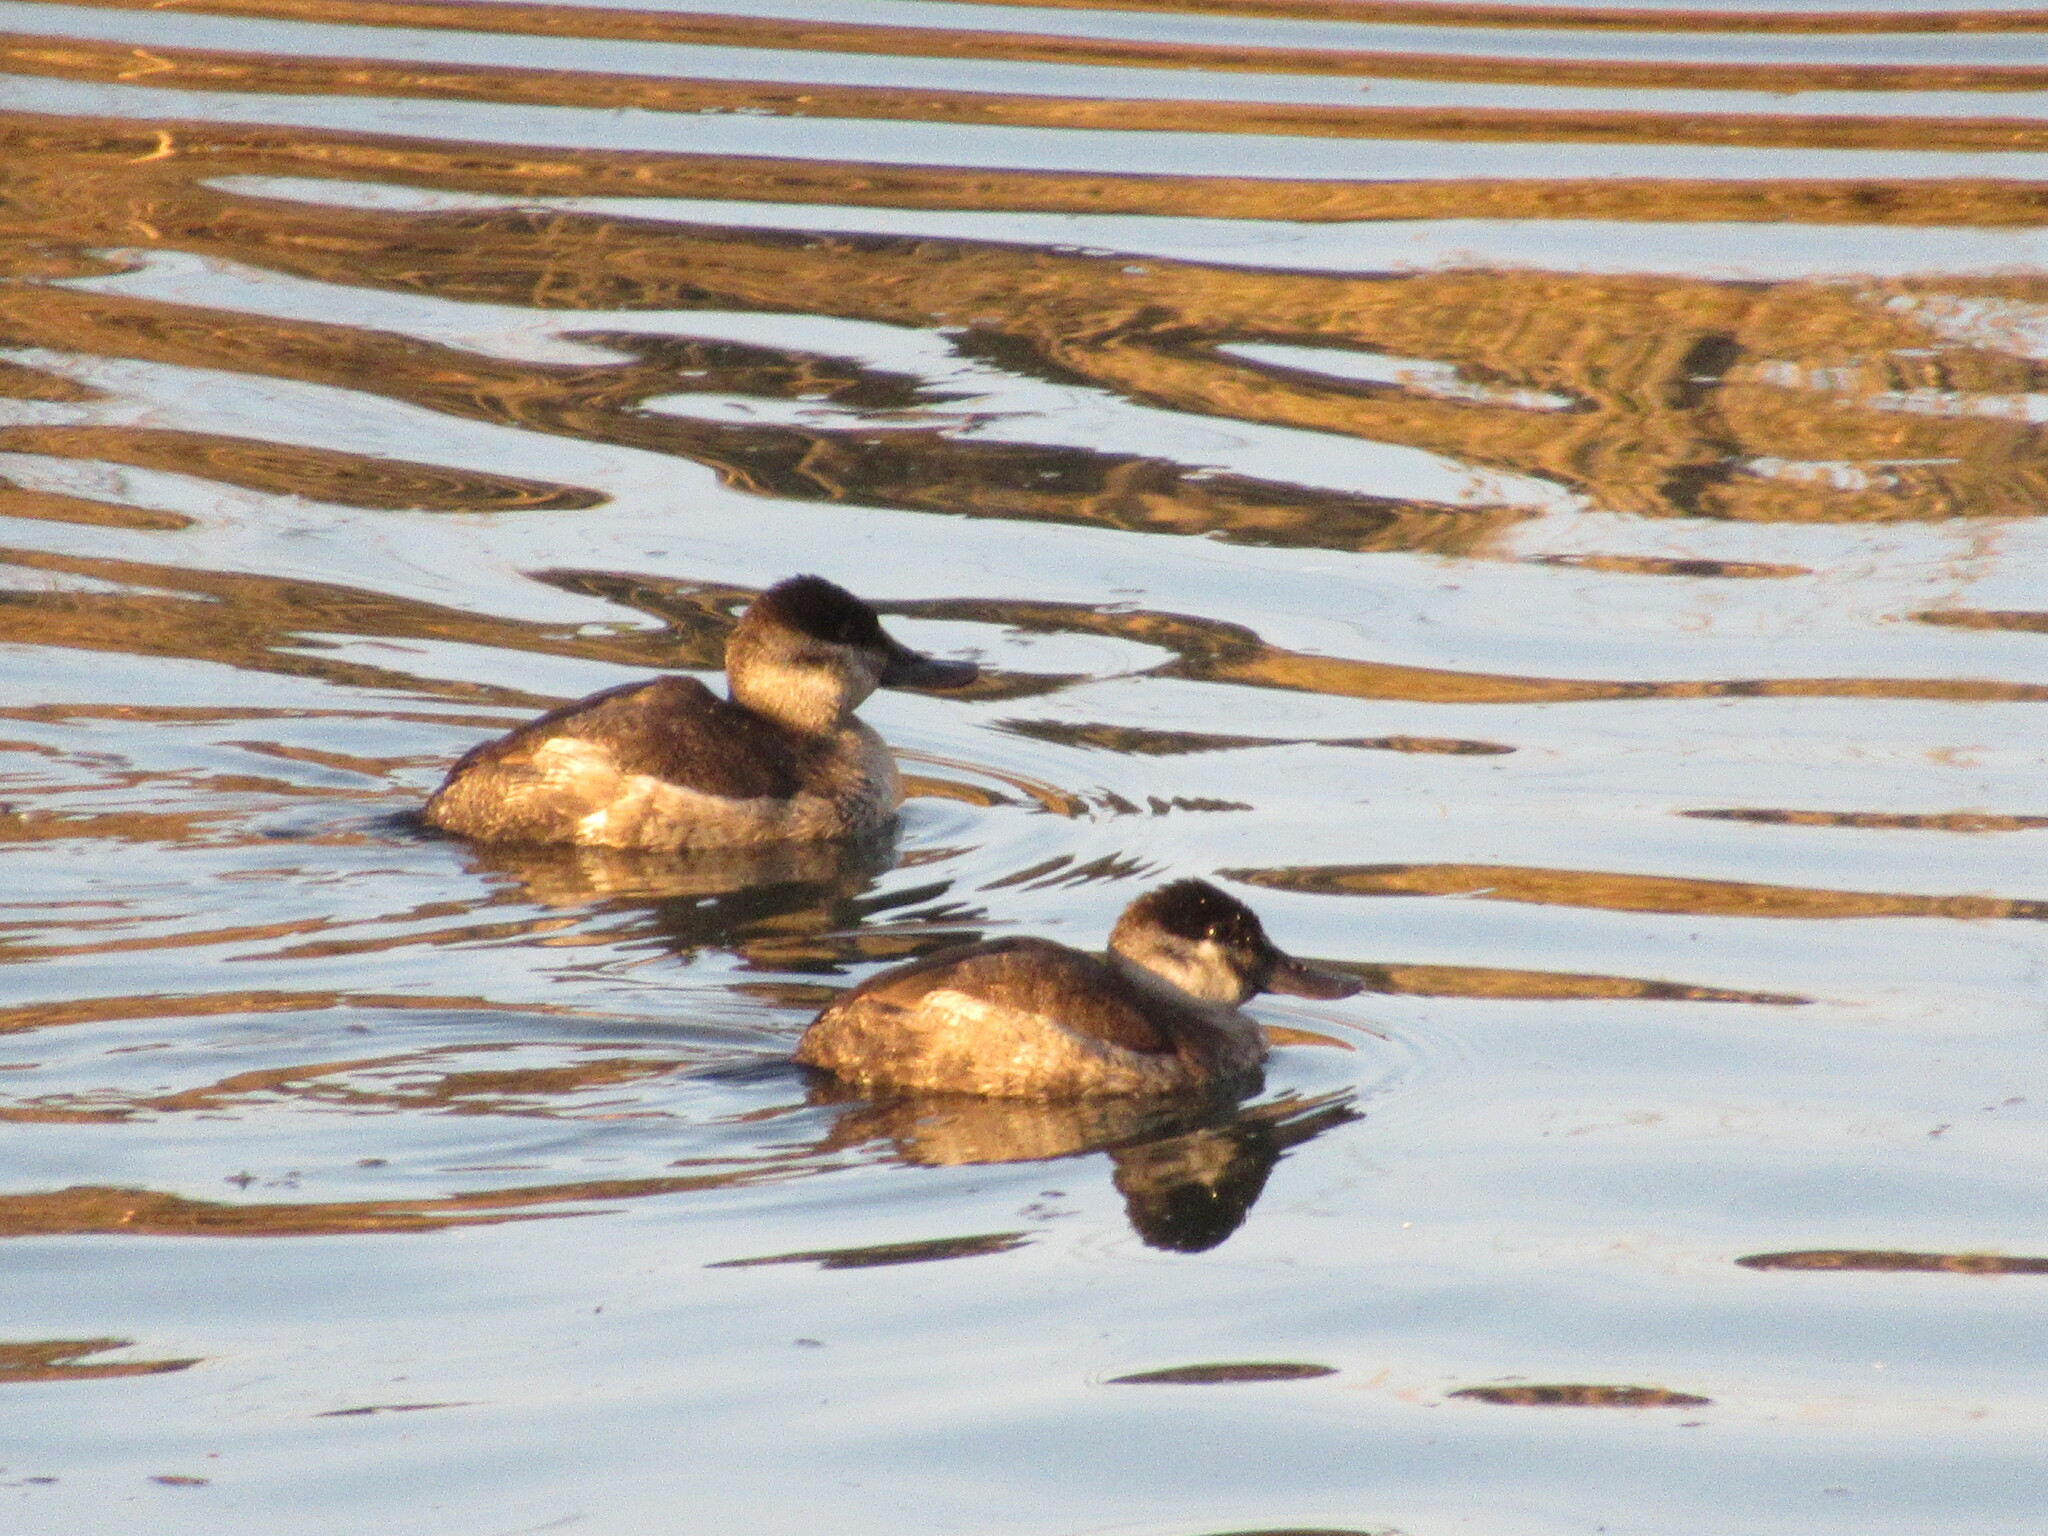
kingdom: Animalia
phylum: Chordata
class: Aves
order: Anseriformes
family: Anatidae
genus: Oxyura
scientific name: Oxyura jamaicensis
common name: Ruddy duck
